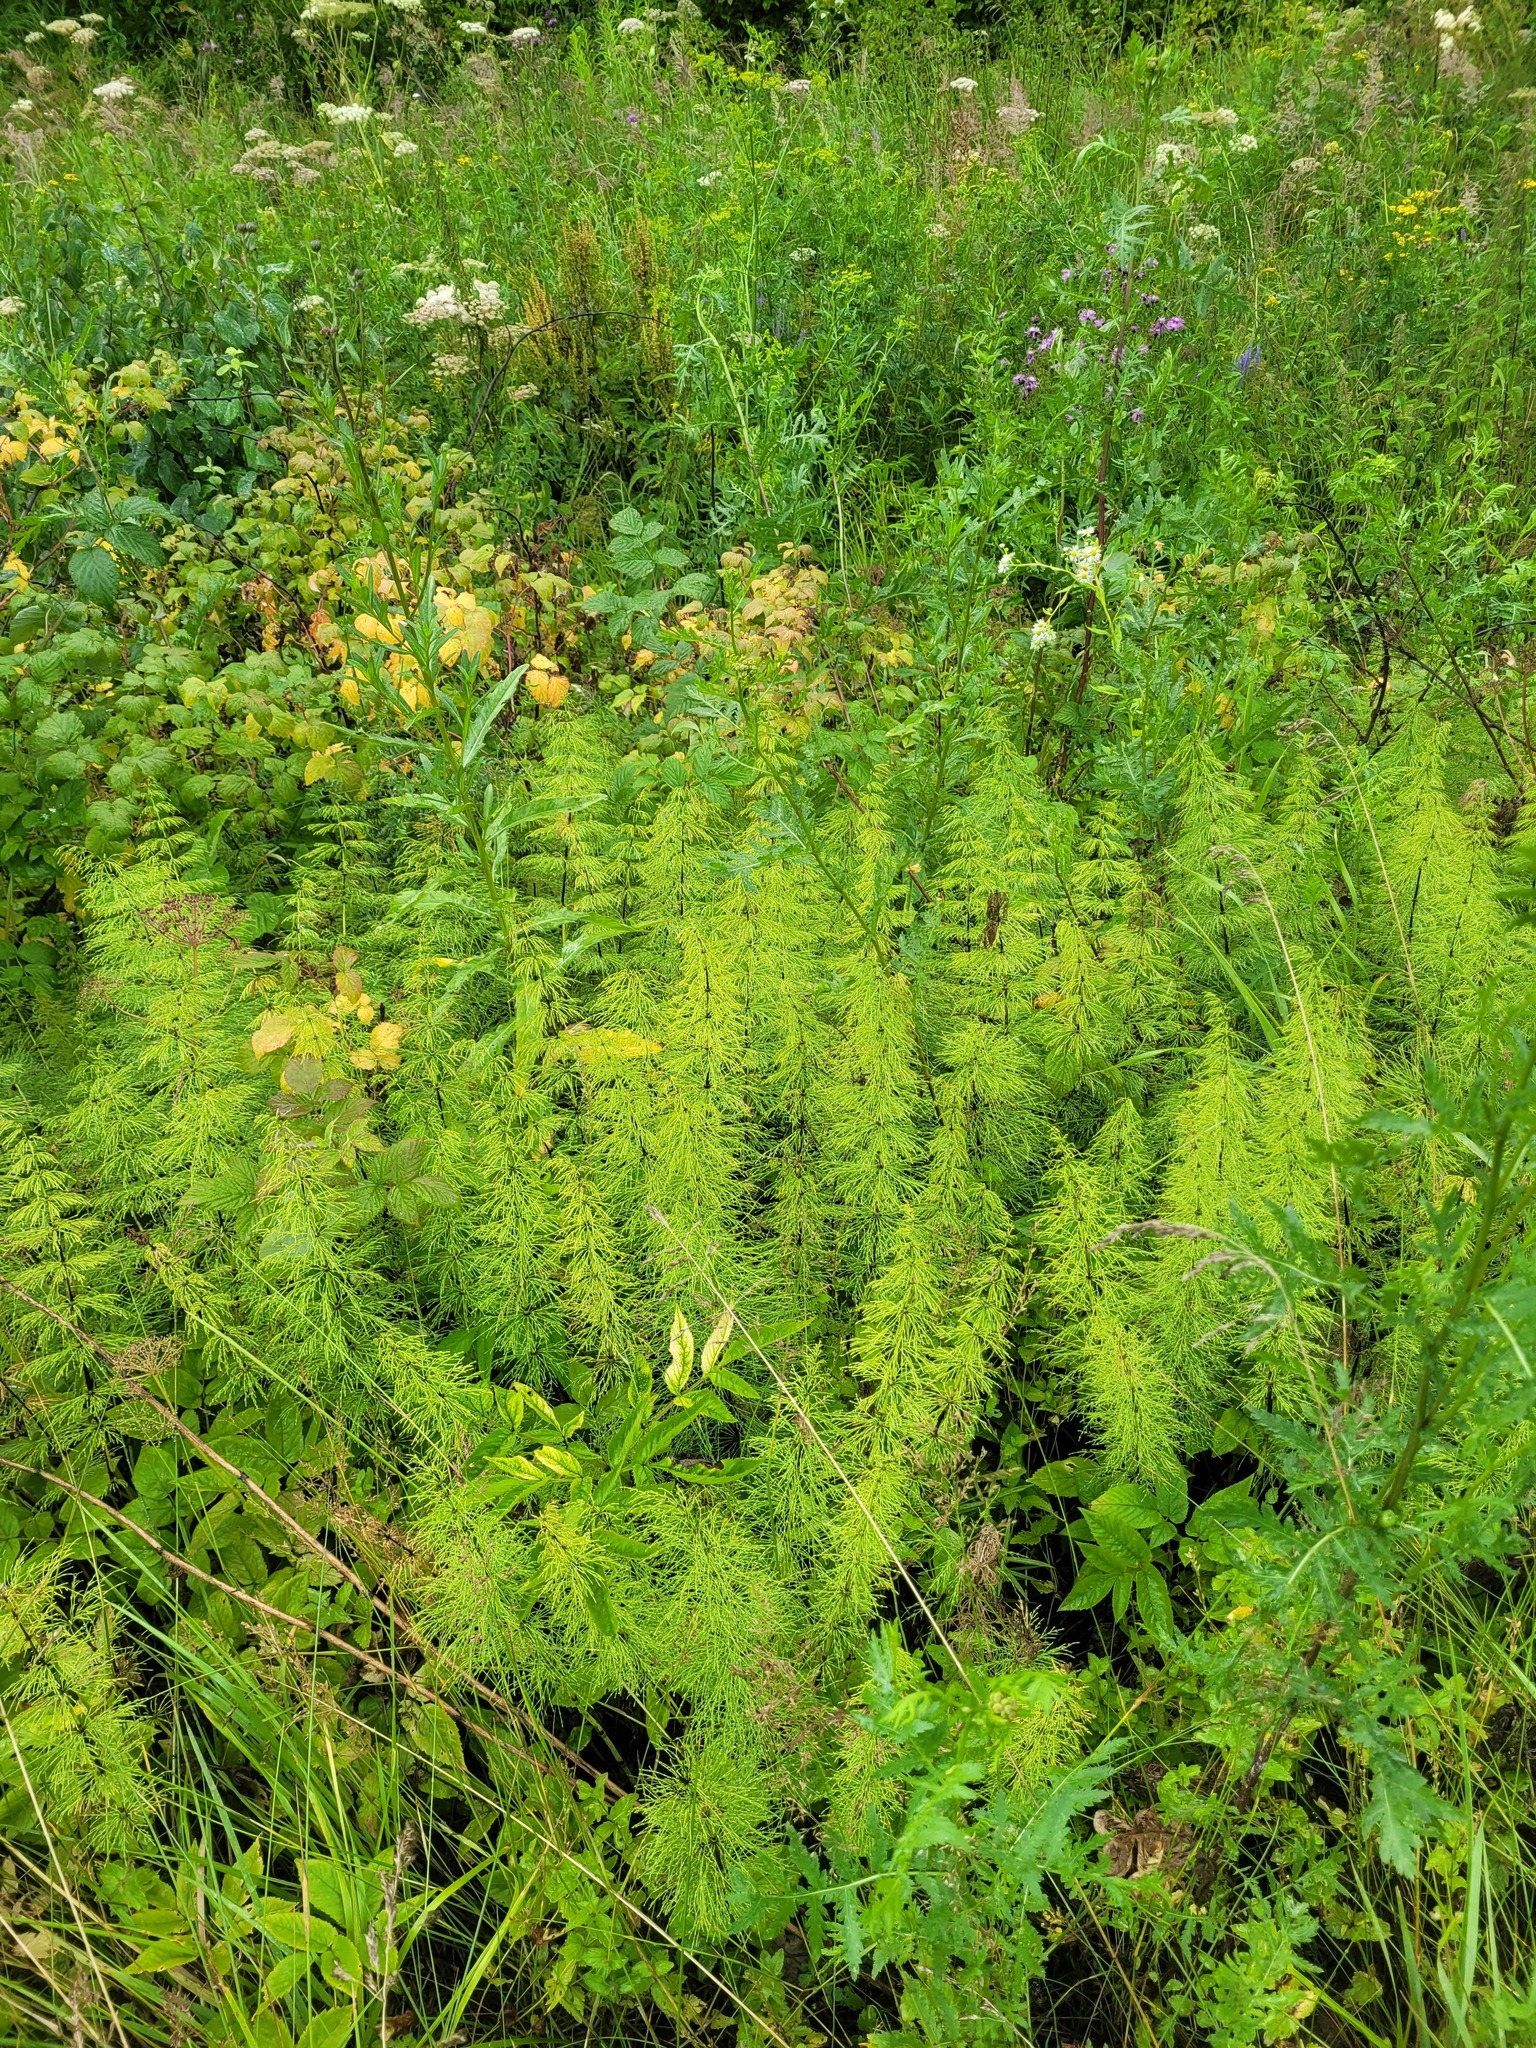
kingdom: Plantae
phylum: Tracheophyta
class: Polypodiopsida
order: Equisetales
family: Equisetaceae
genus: Equisetum
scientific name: Equisetum sylvaticum
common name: Wood horsetail
